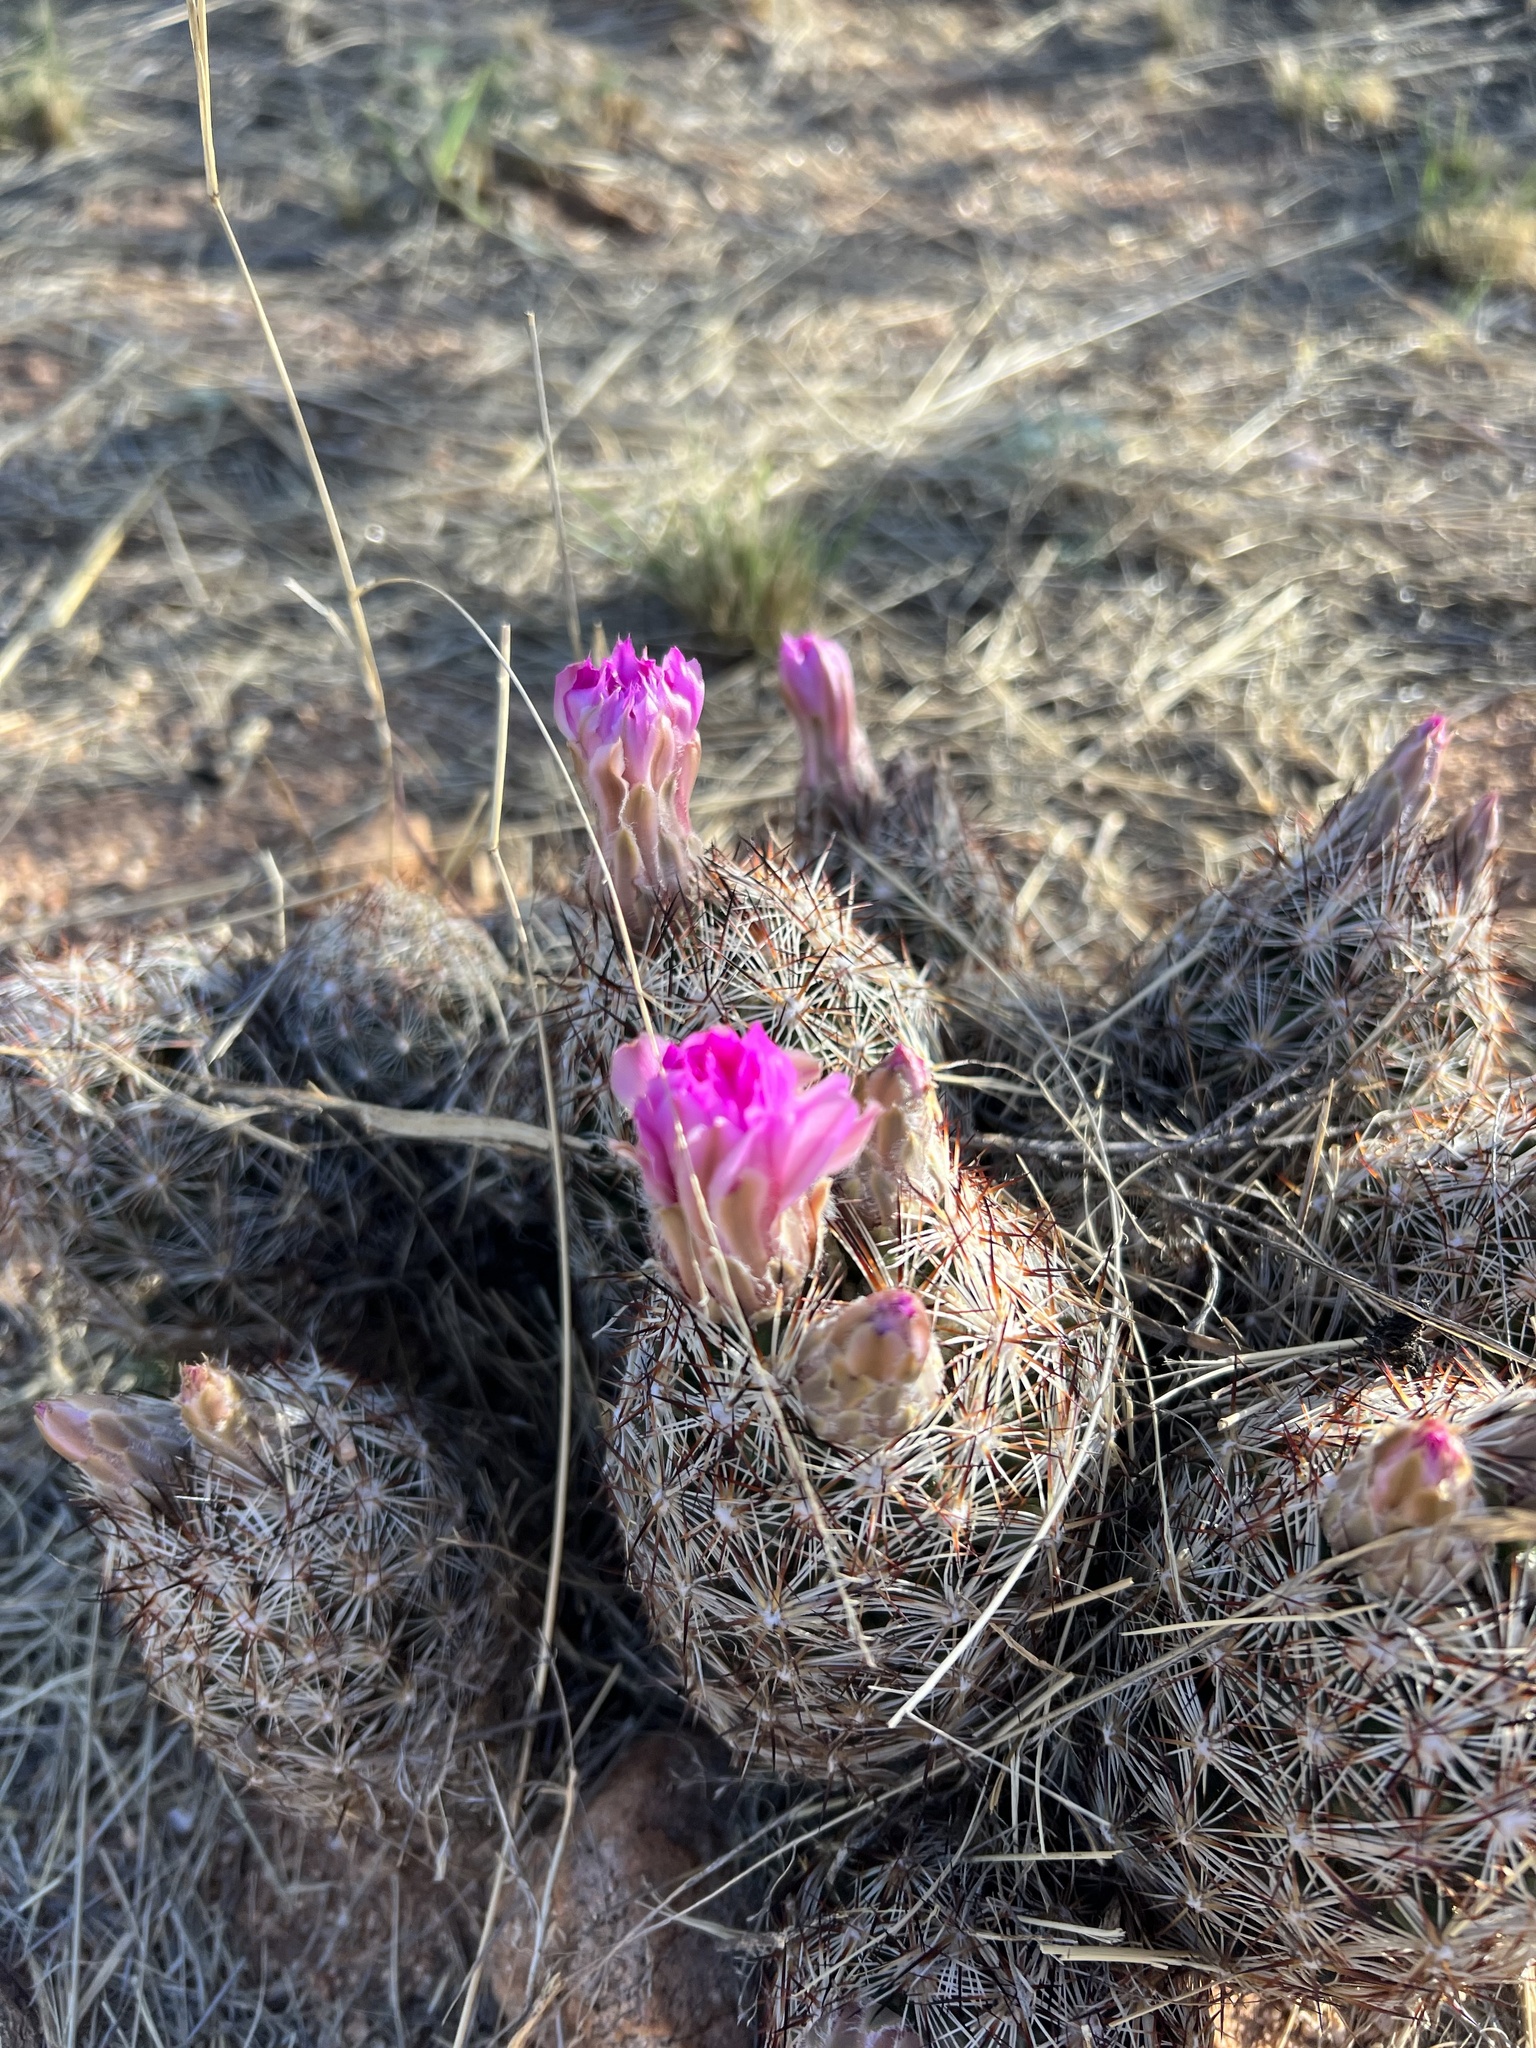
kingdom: Plantae
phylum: Tracheophyta
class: Magnoliopsida
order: Caryophyllales
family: Cactaceae
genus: Pelecyphora
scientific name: Pelecyphora vivipara
